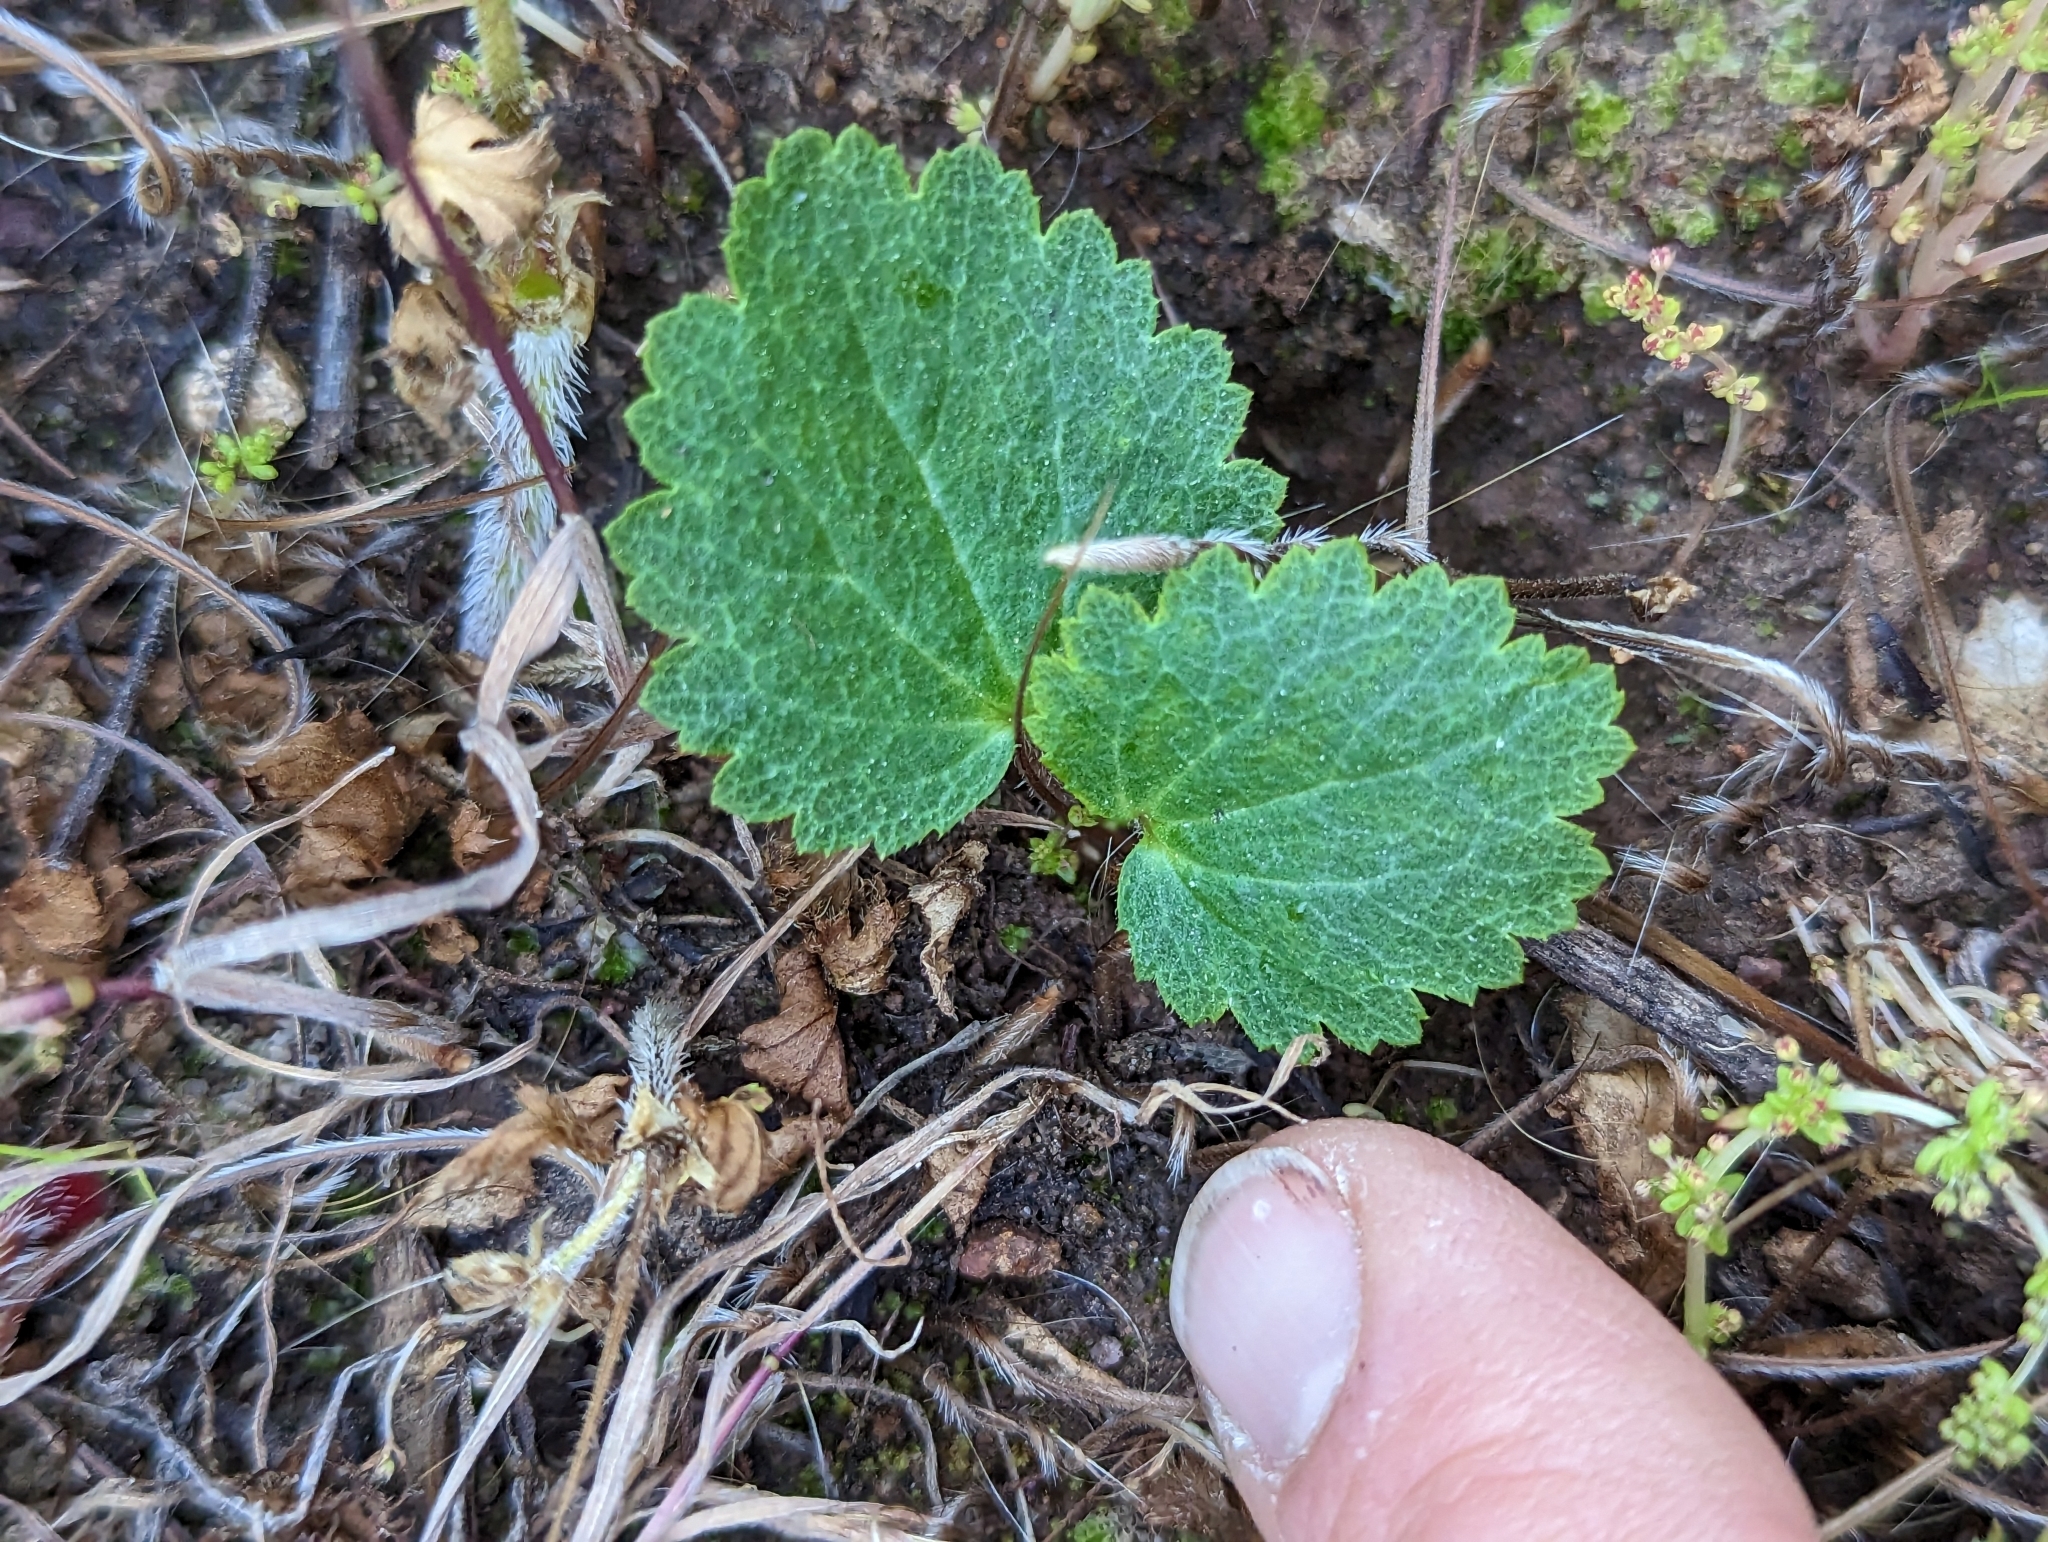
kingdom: Plantae
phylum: Tracheophyta
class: Magnoliopsida
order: Saxifragales
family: Saxifragaceae
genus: Jepsonia
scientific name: Jepsonia parryi
